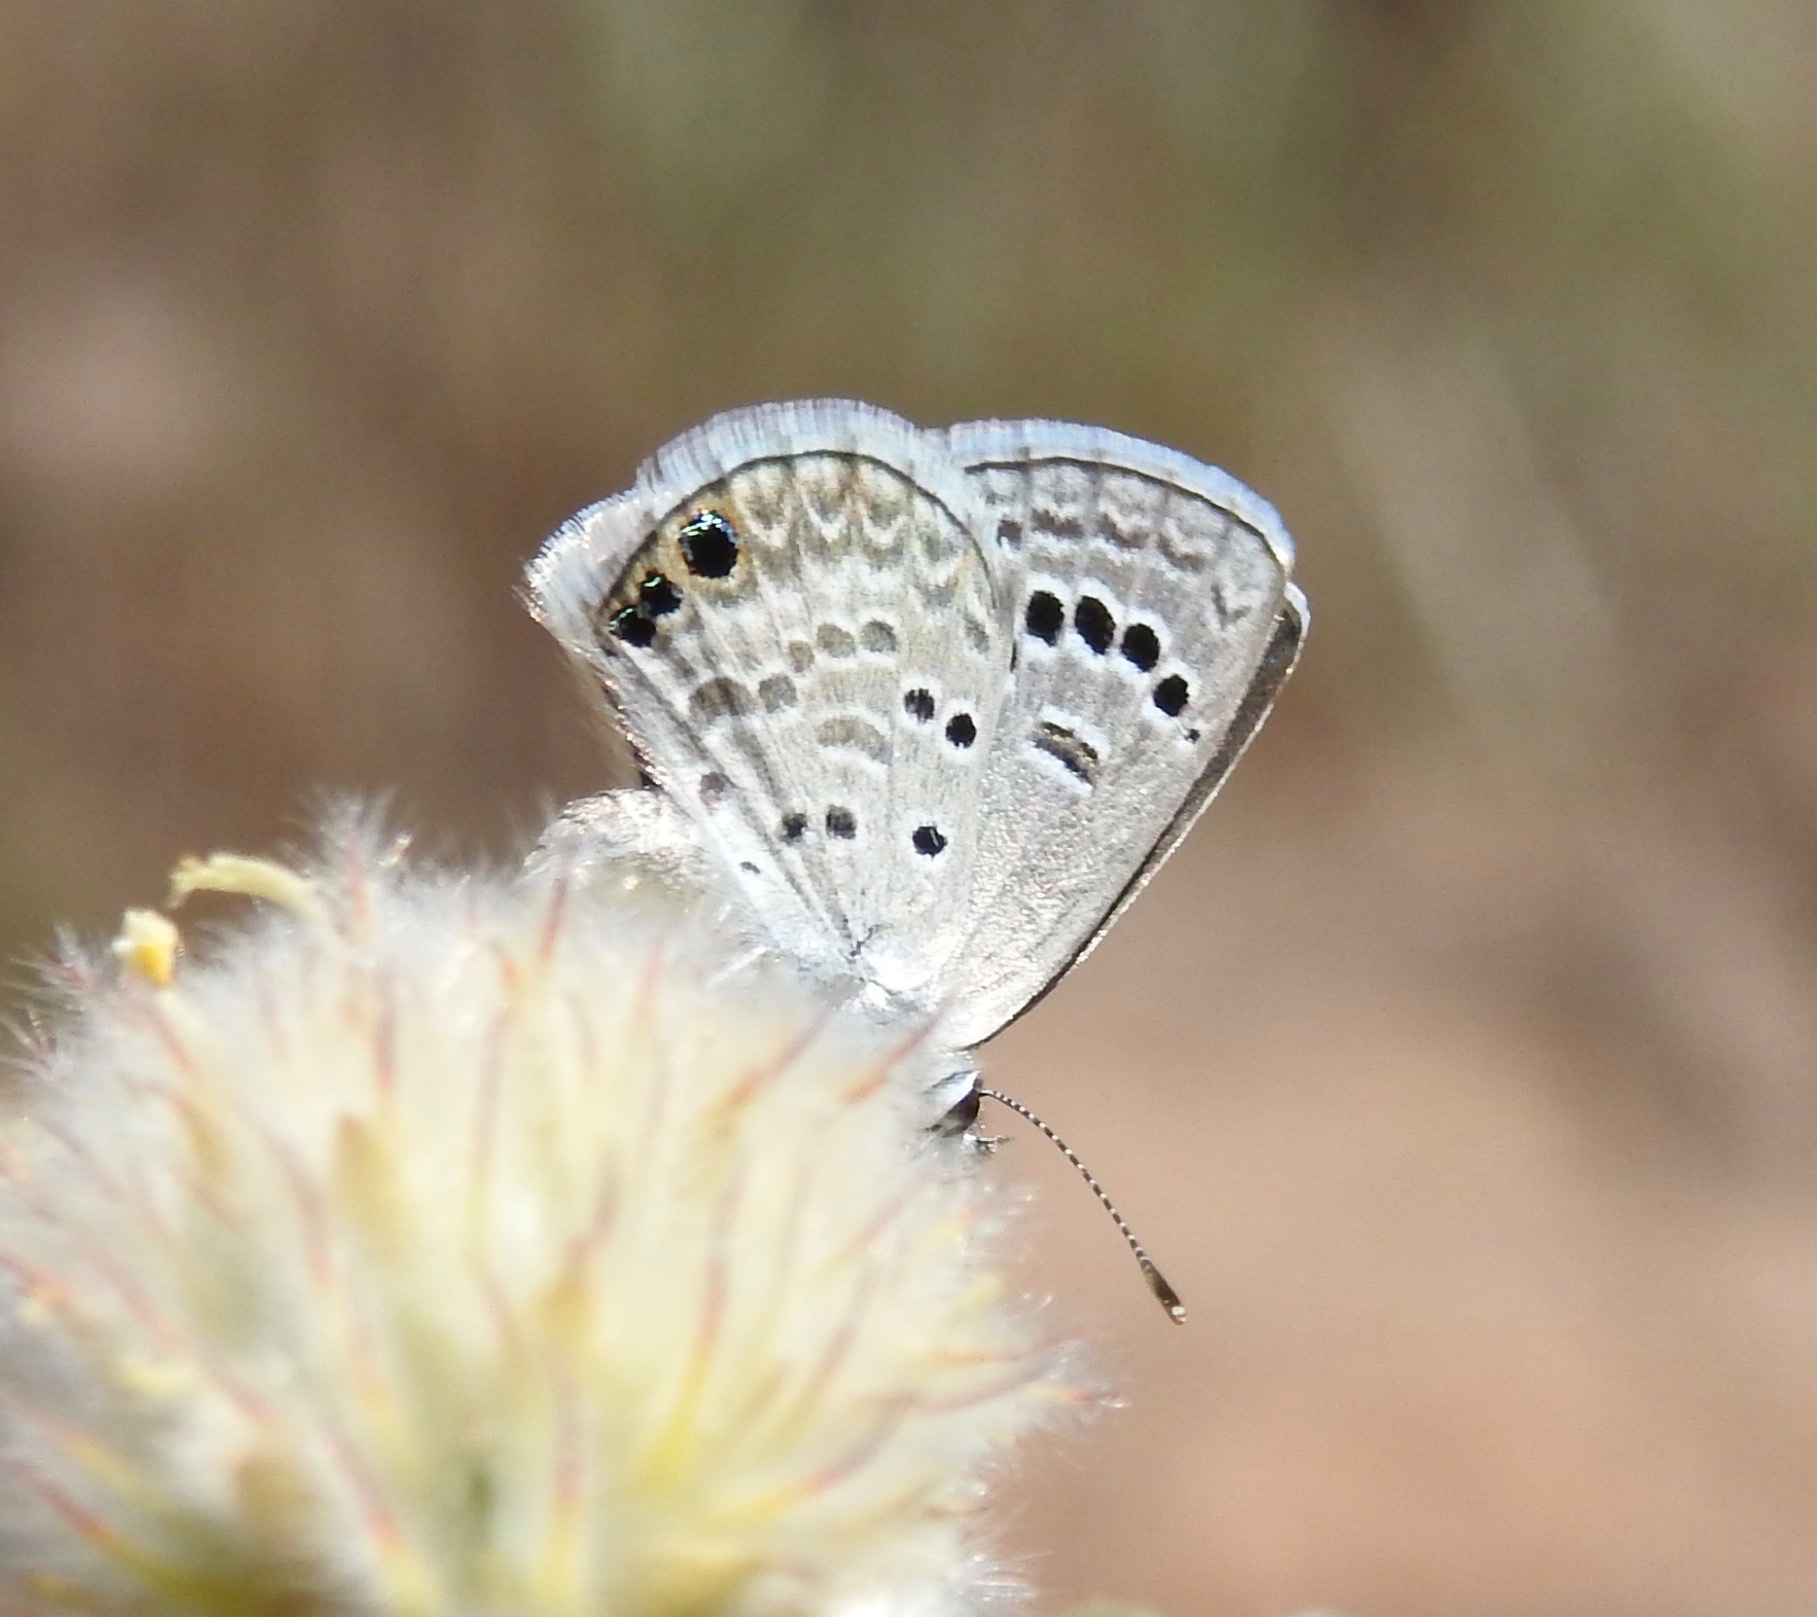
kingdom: Animalia
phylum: Arthropoda
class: Insecta
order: Lepidoptera
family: Lycaenidae
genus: Echinargus
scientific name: Echinargus isola
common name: Reakirt's blue
